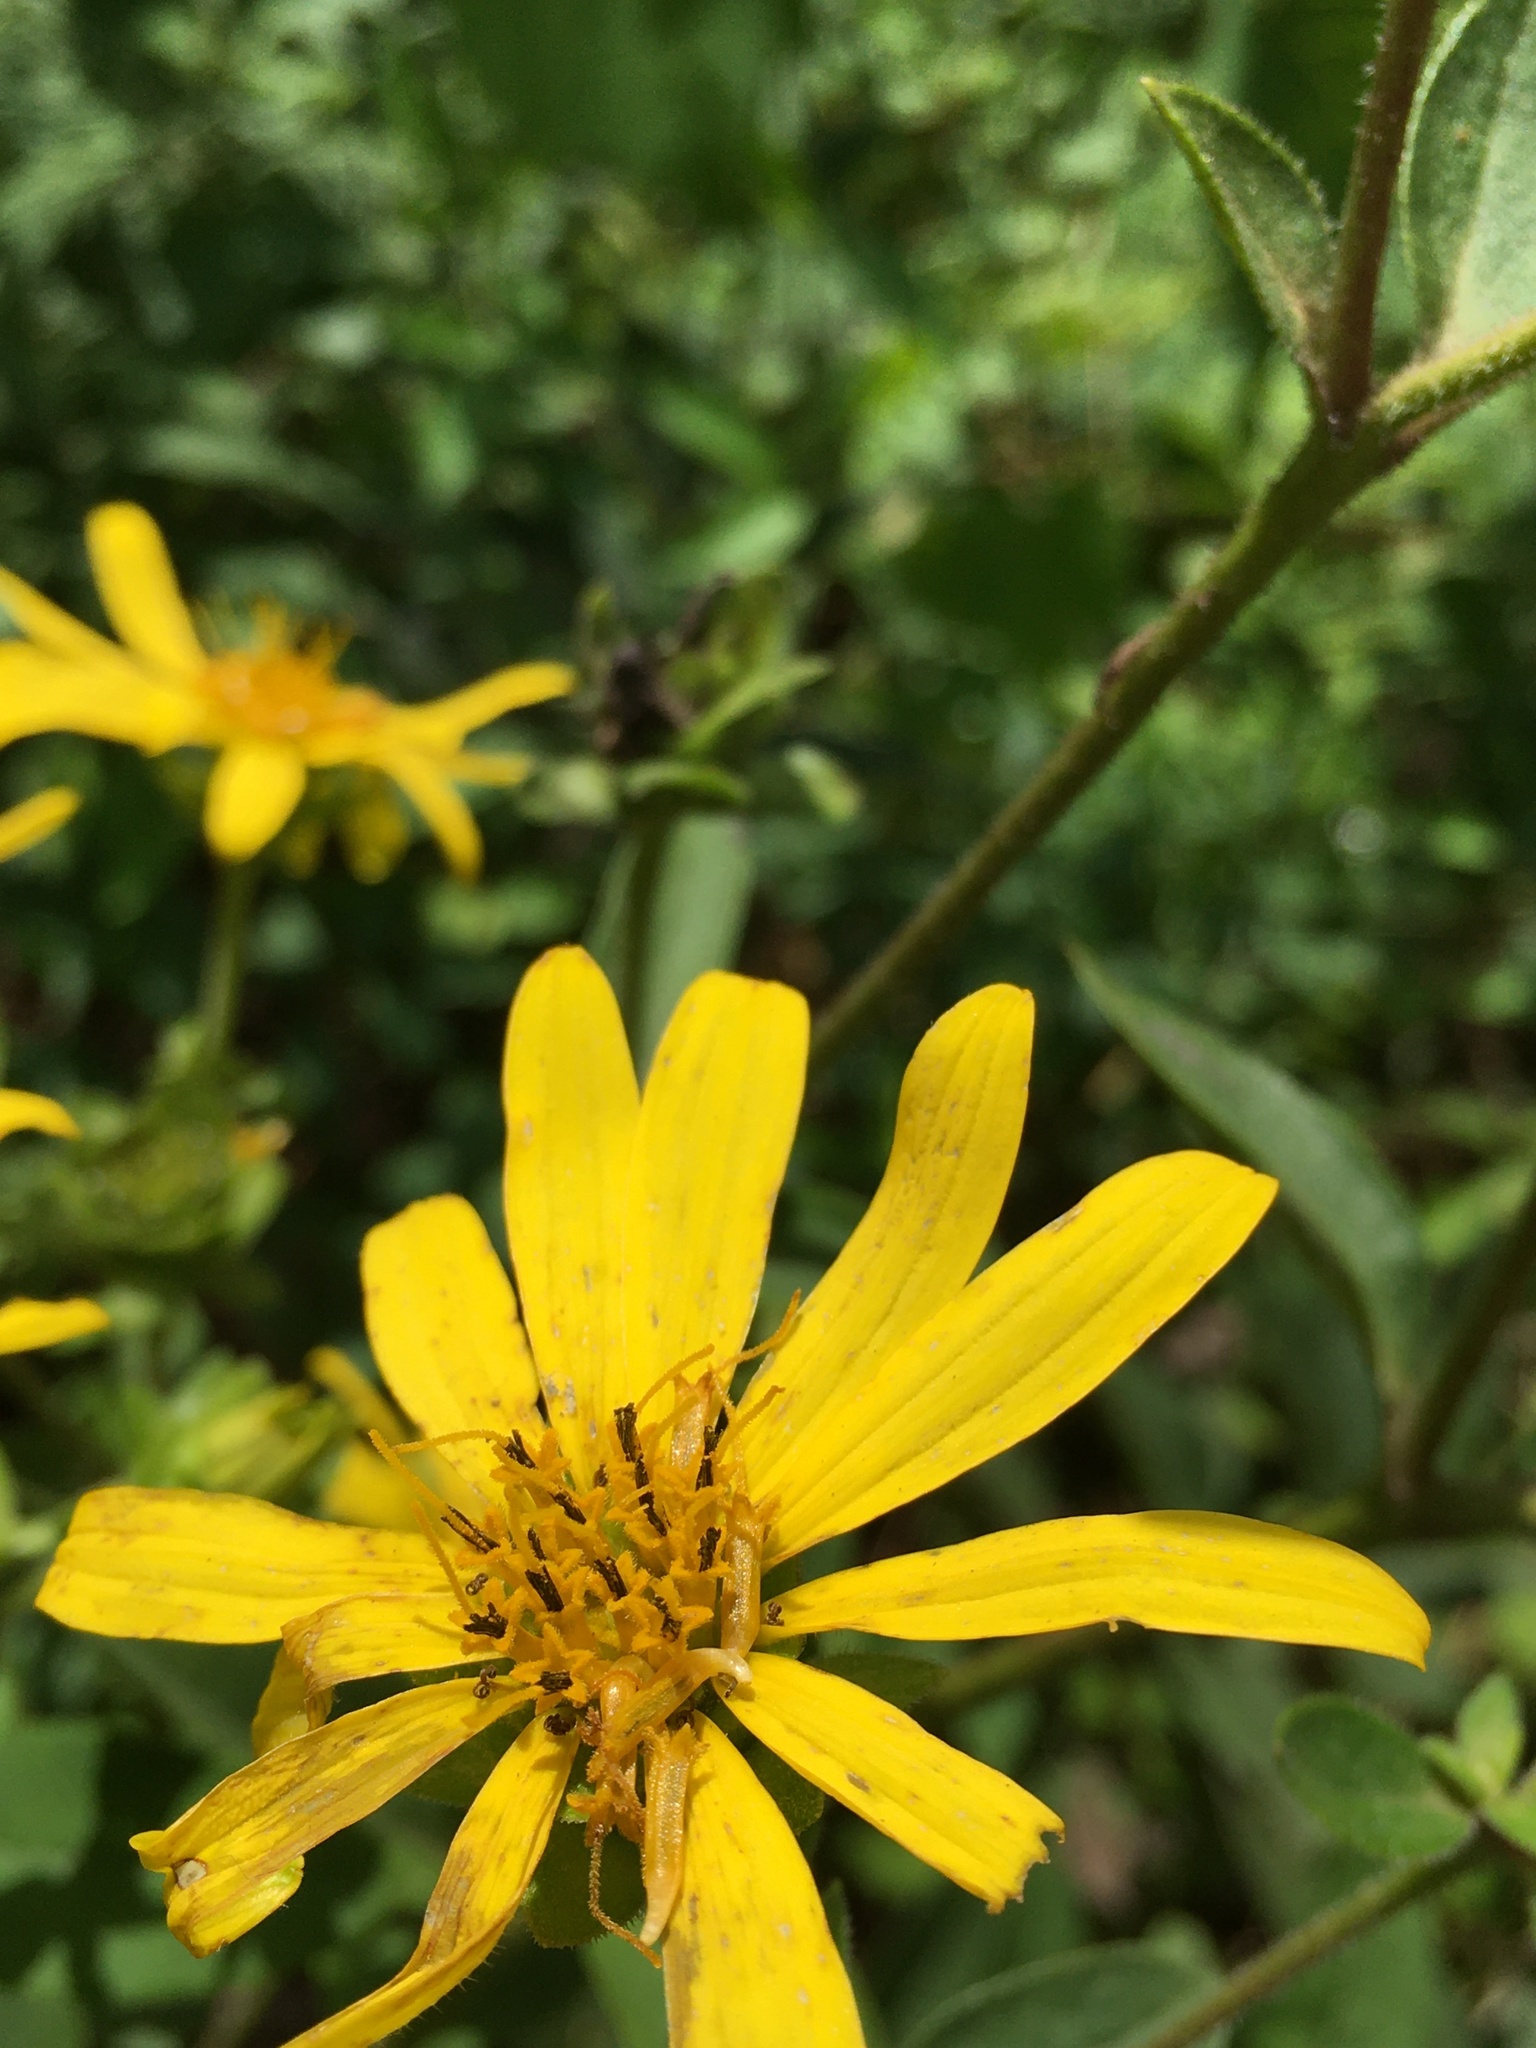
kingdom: Plantae
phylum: Tracheophyta
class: Magnoliopsida
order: Asterales
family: Asteraceae
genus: Silphium
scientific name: Silphium asteriscus
